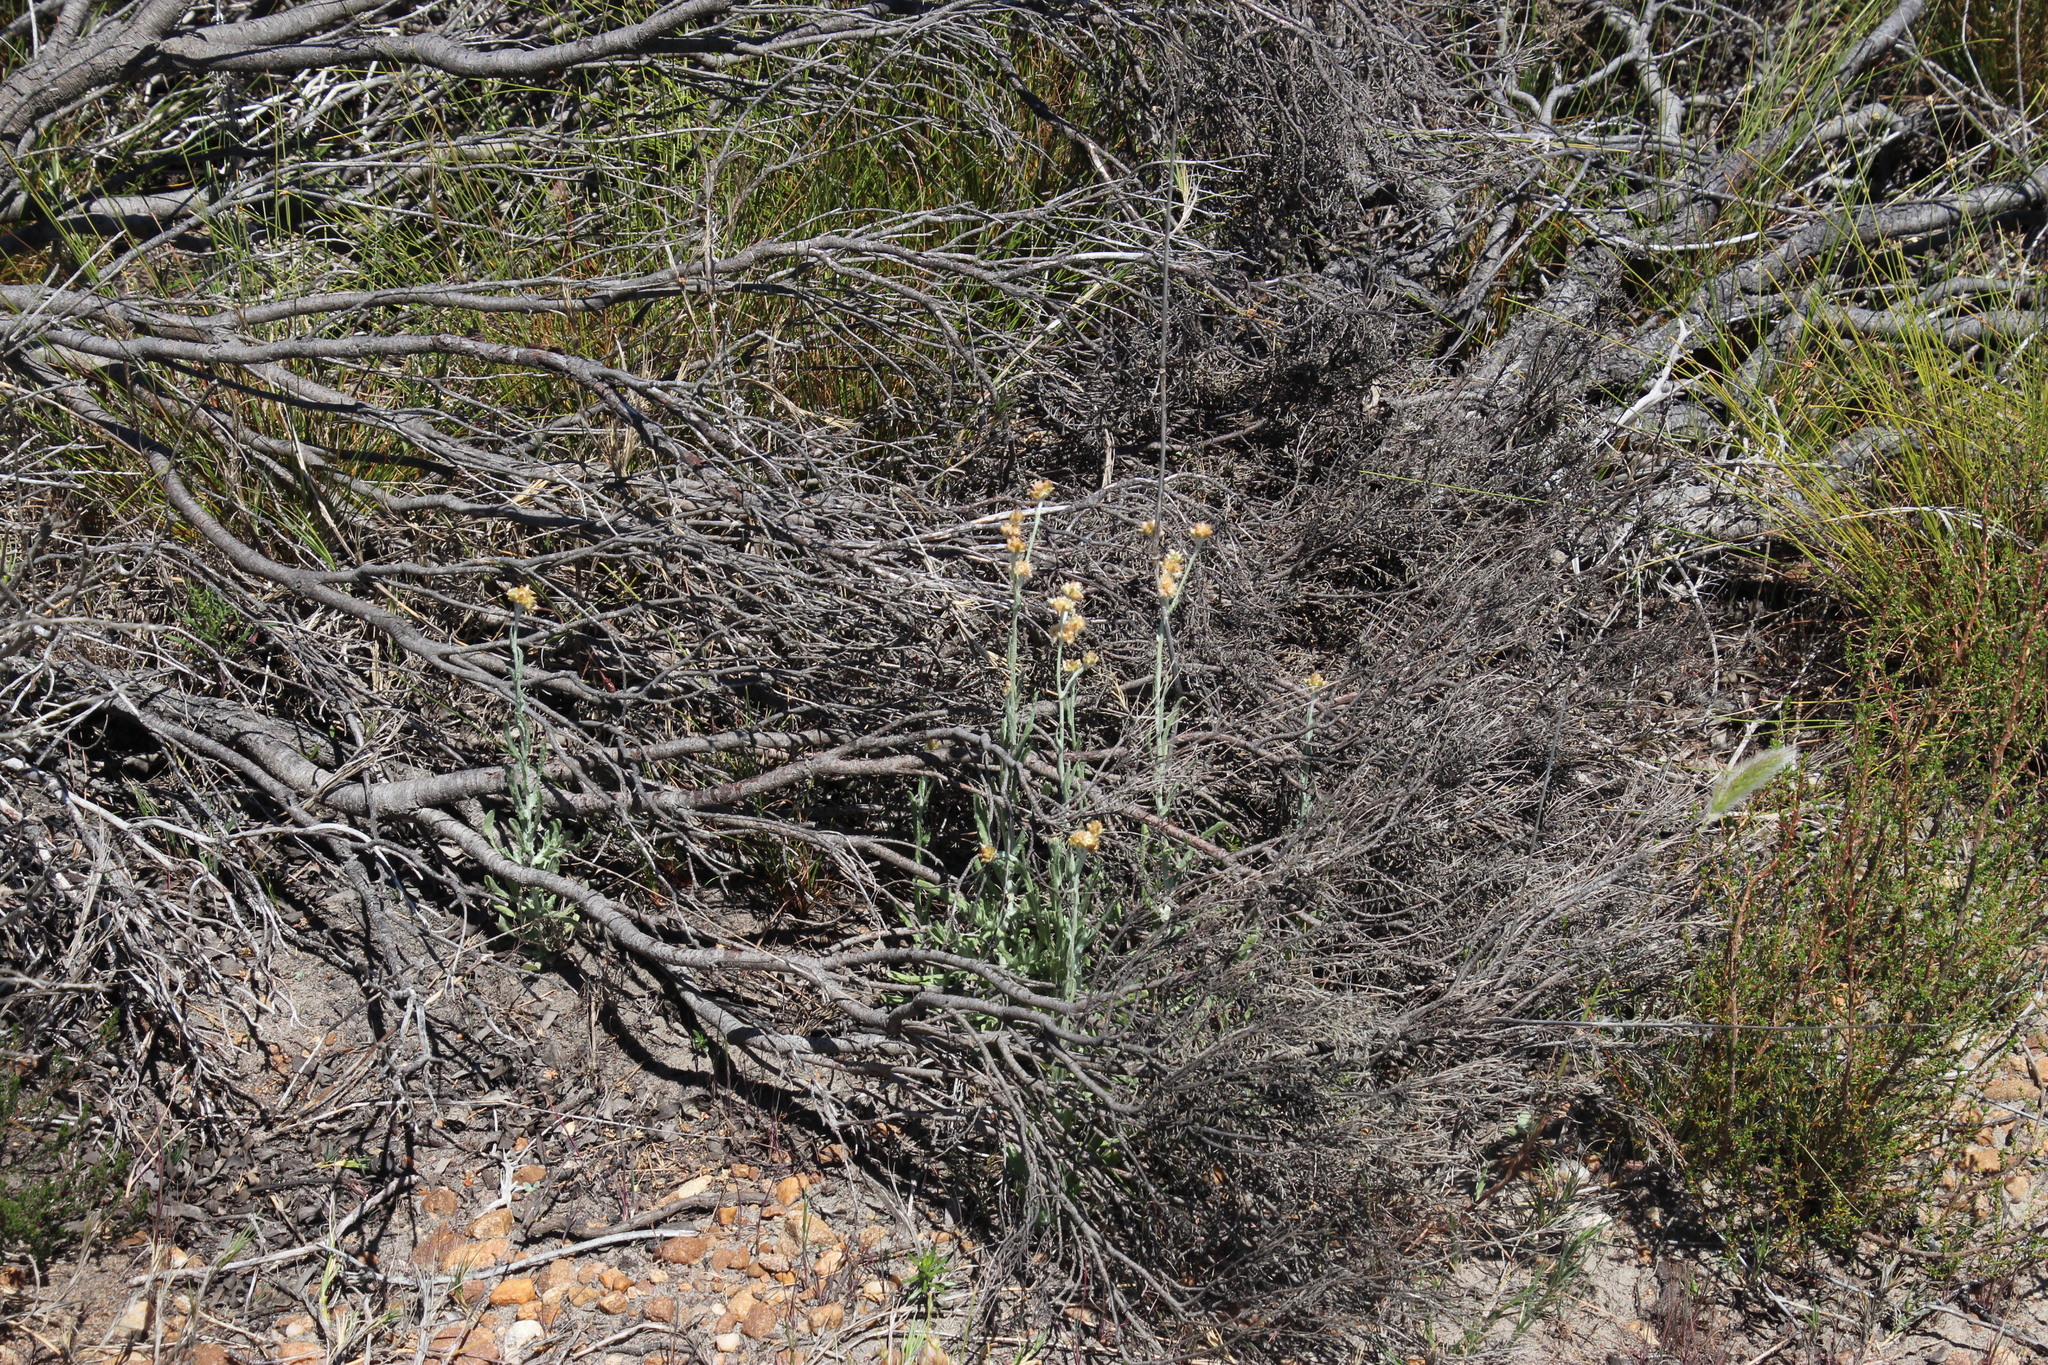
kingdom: Plantae
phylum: Tracheophyta
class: Magnoliopsida
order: Asterales
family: Asteraceae
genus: Helichrysum
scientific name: Helichrysum dasyanthum
